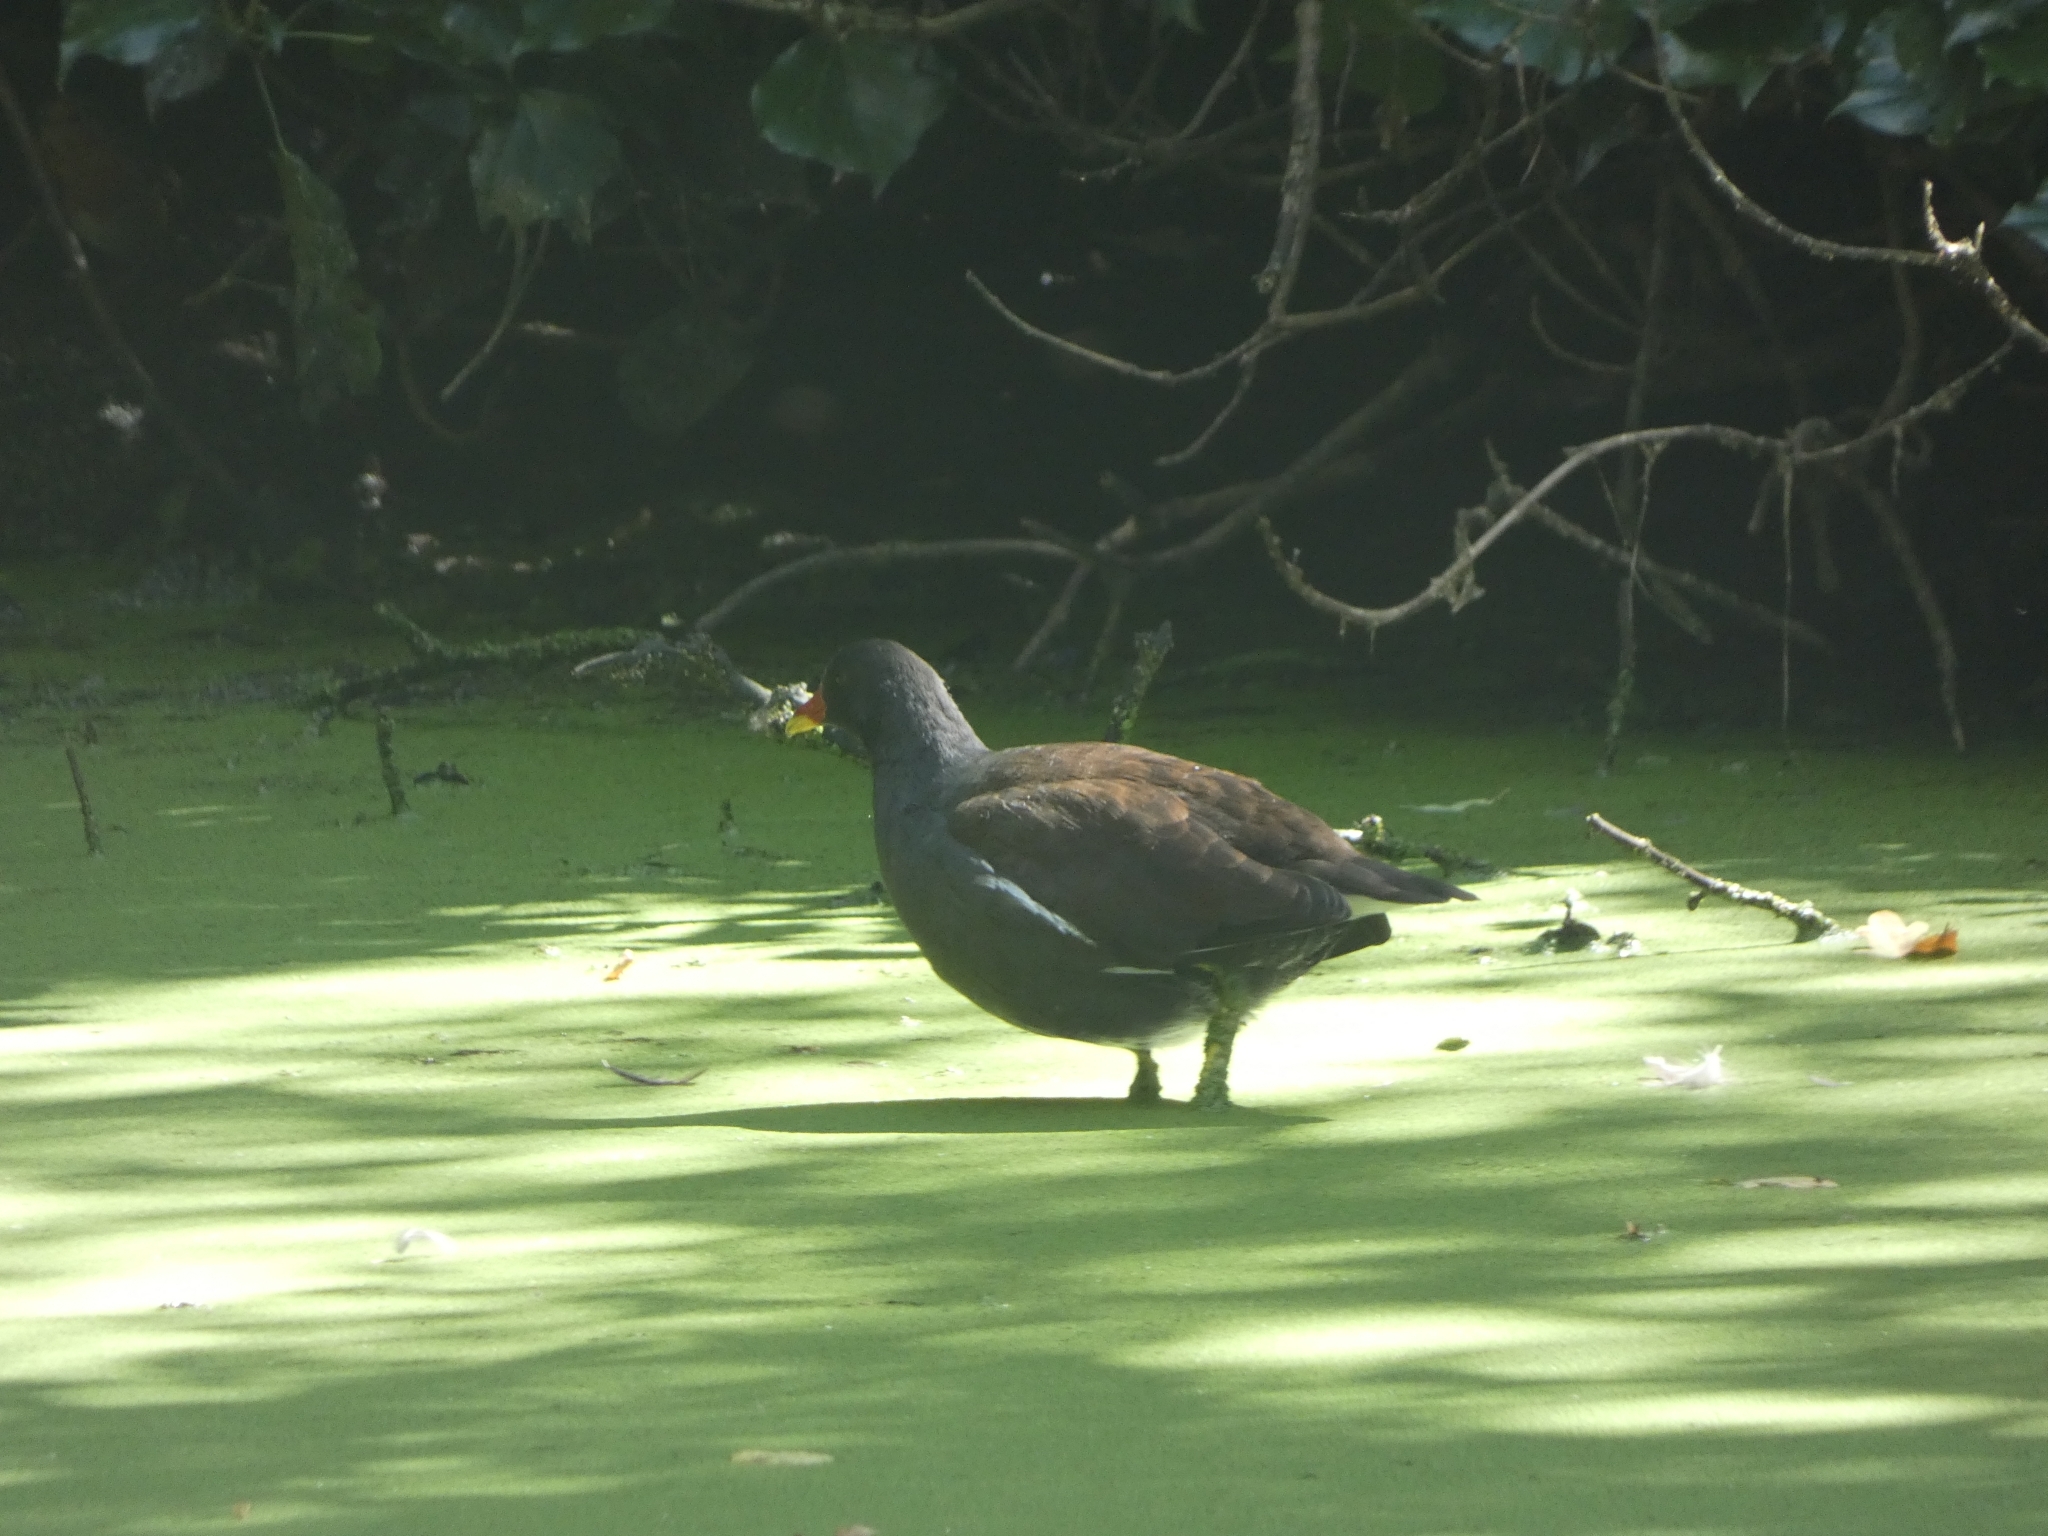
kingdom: Animalia
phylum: Chordata
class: Aves
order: Gruiformes
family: Rallidae
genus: Gallinula
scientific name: Gallinula chloropus
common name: Common moorhen
